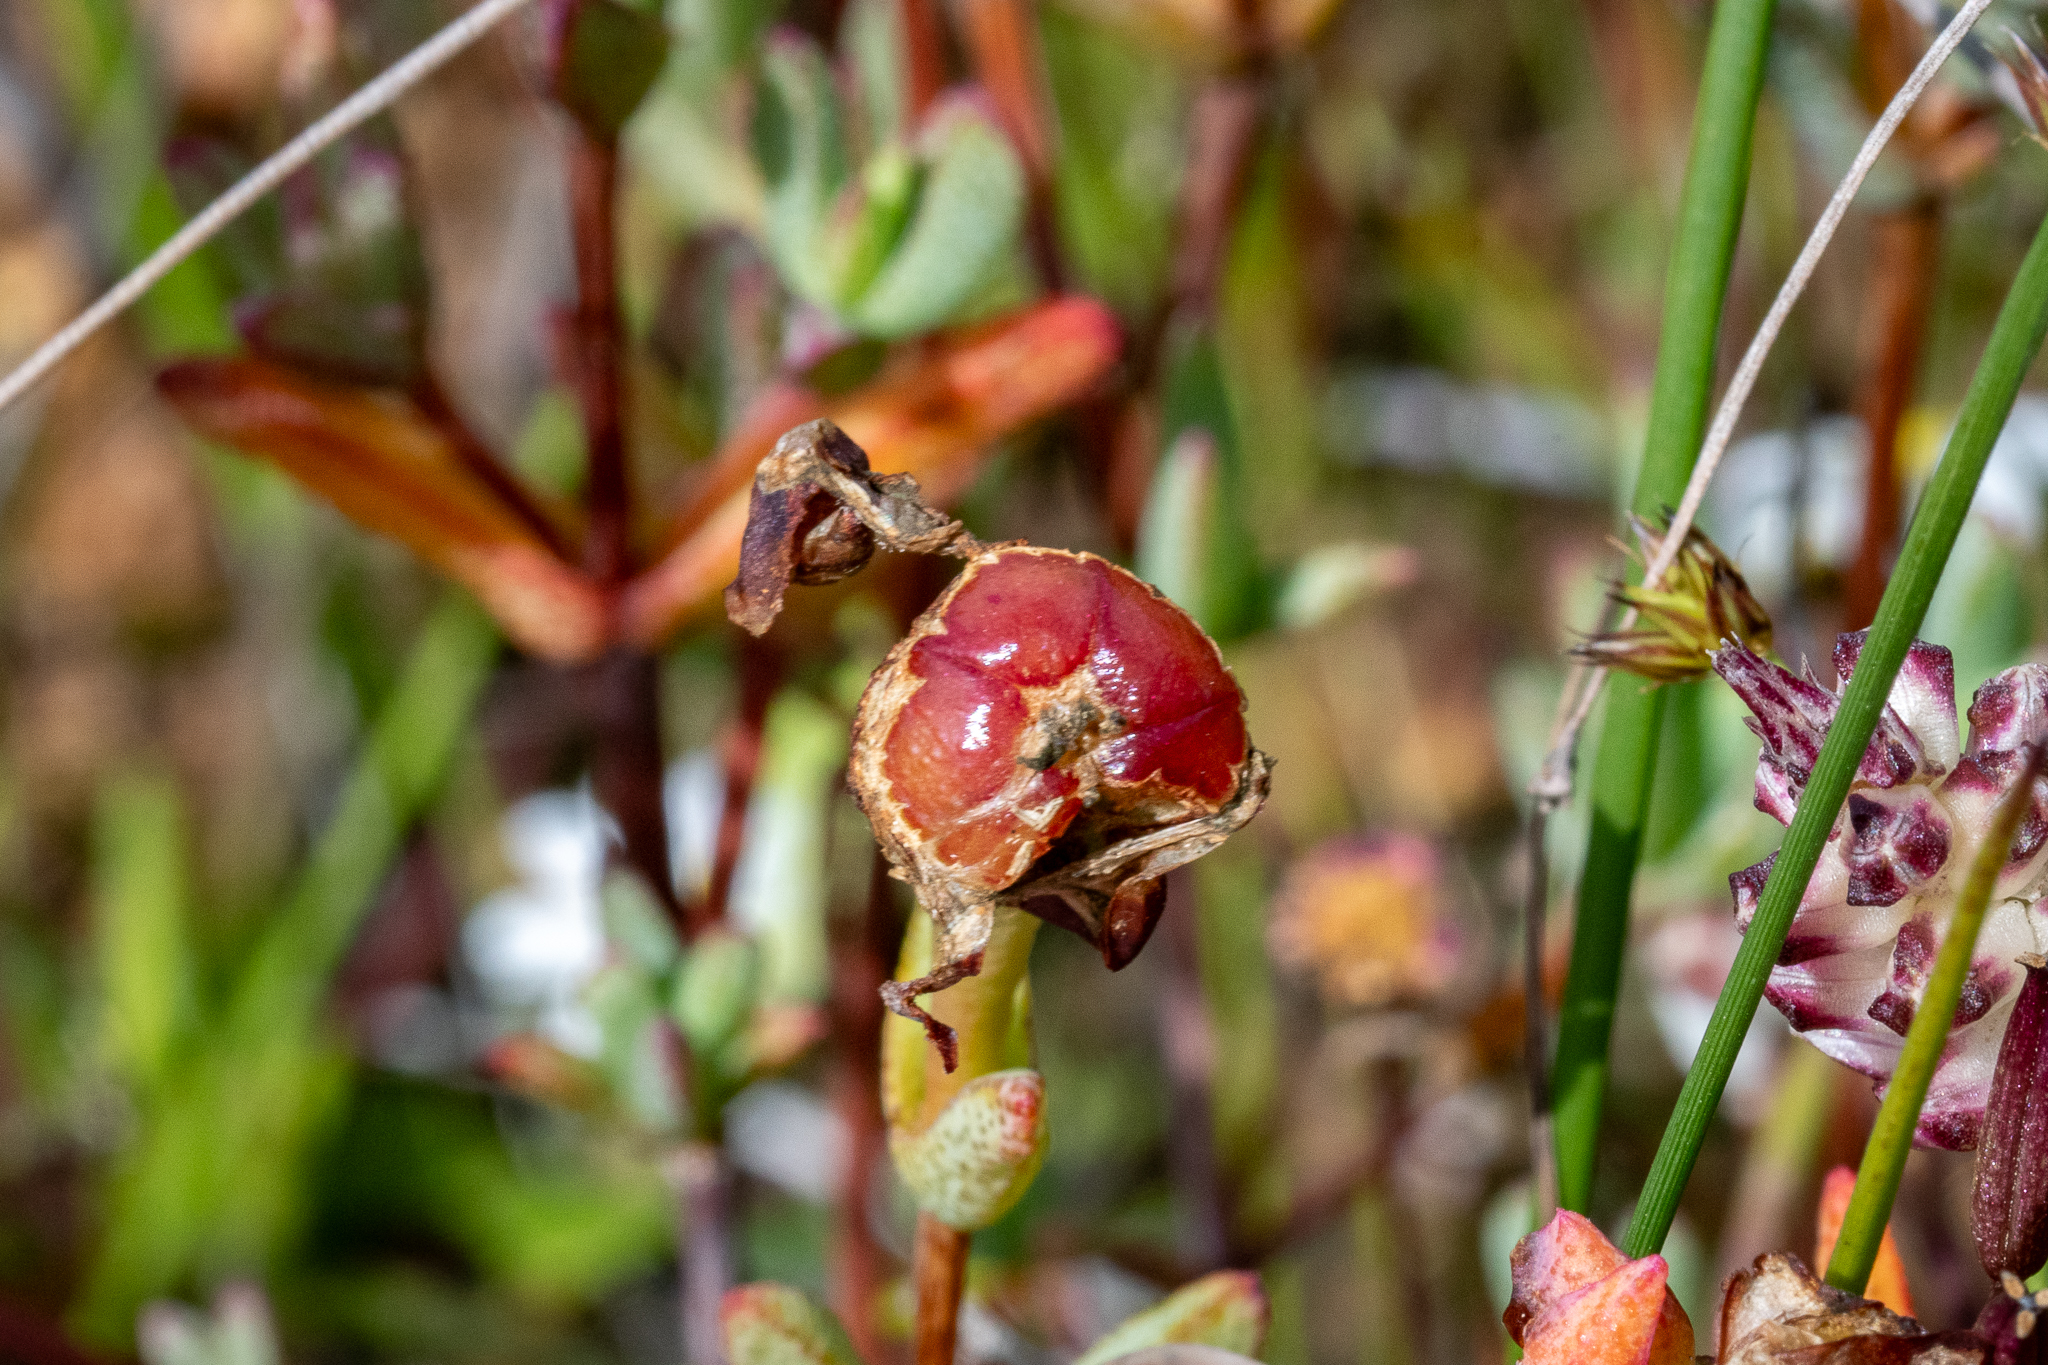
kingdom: Plantae
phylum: Tracheophyta
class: Magnoliopsida
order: Caryophyllales
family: Aizoaceae
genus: Lampranthus
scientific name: Lampranthus glaucus
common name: Noonflower
